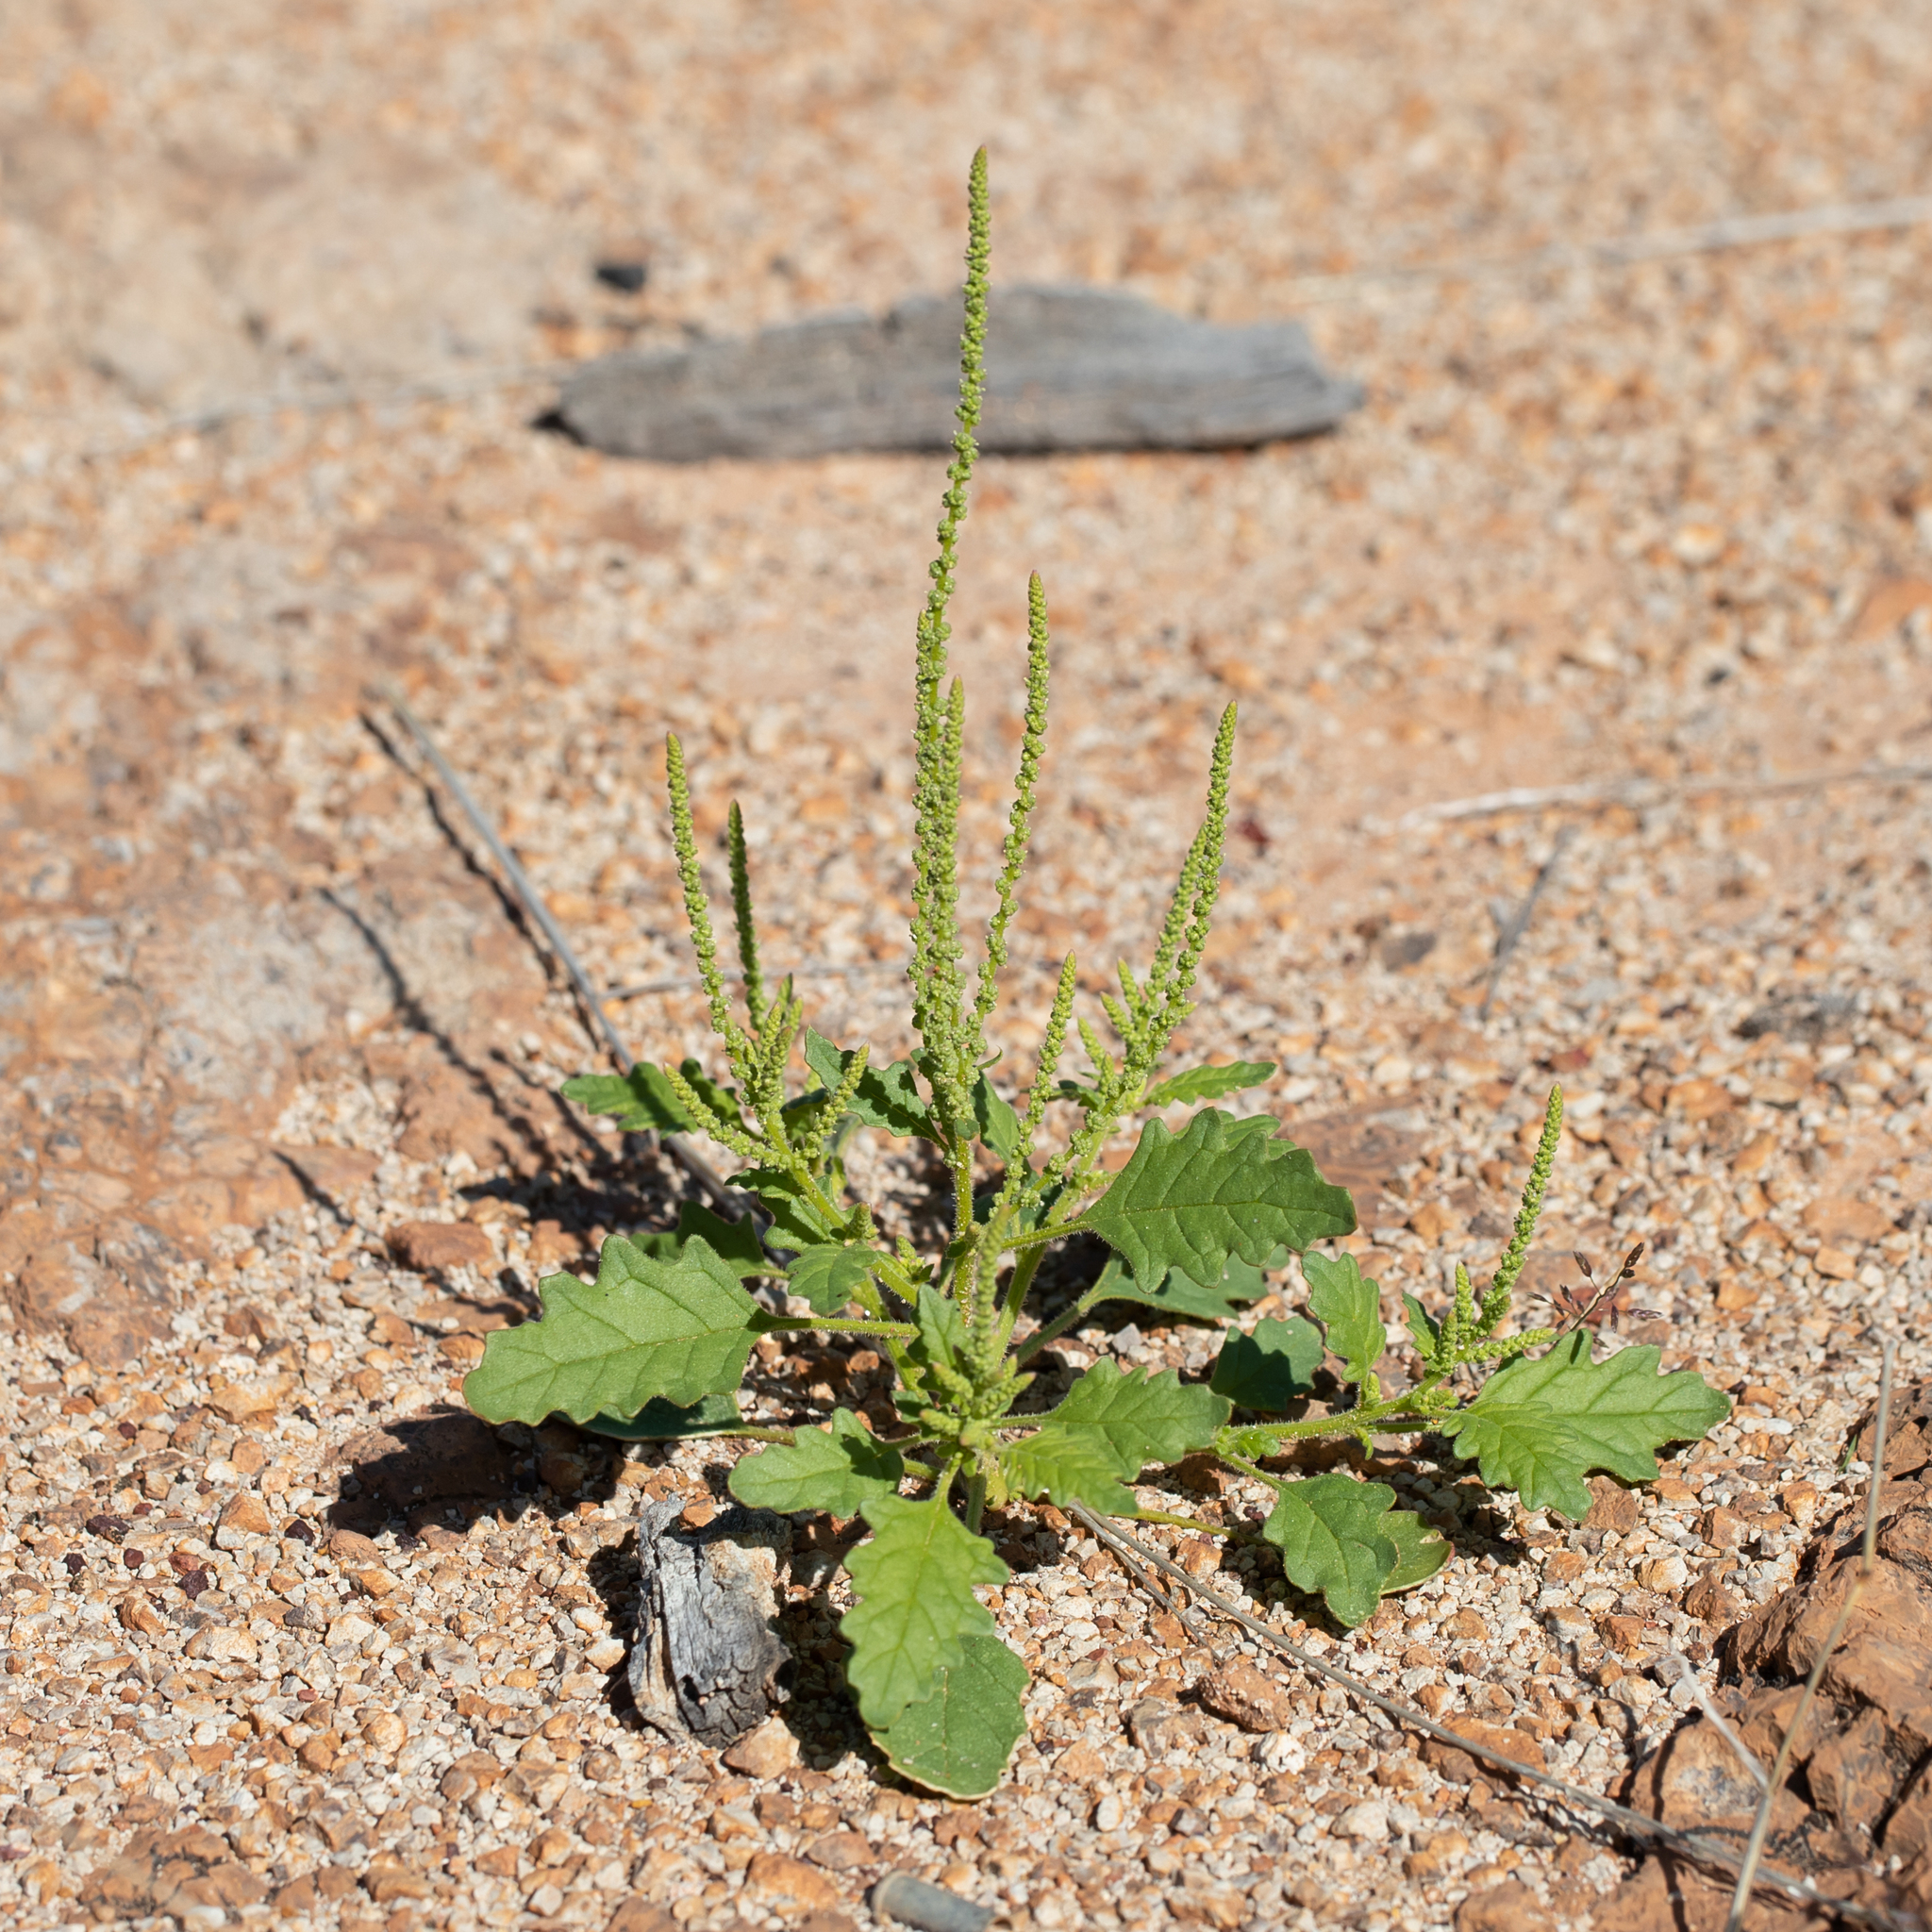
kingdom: Plantae
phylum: Tracheophyta
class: Magnoliopsida
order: Caryophyllales
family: Amaranthaceae
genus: Dysphania
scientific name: Dysphania rhadinostachya
